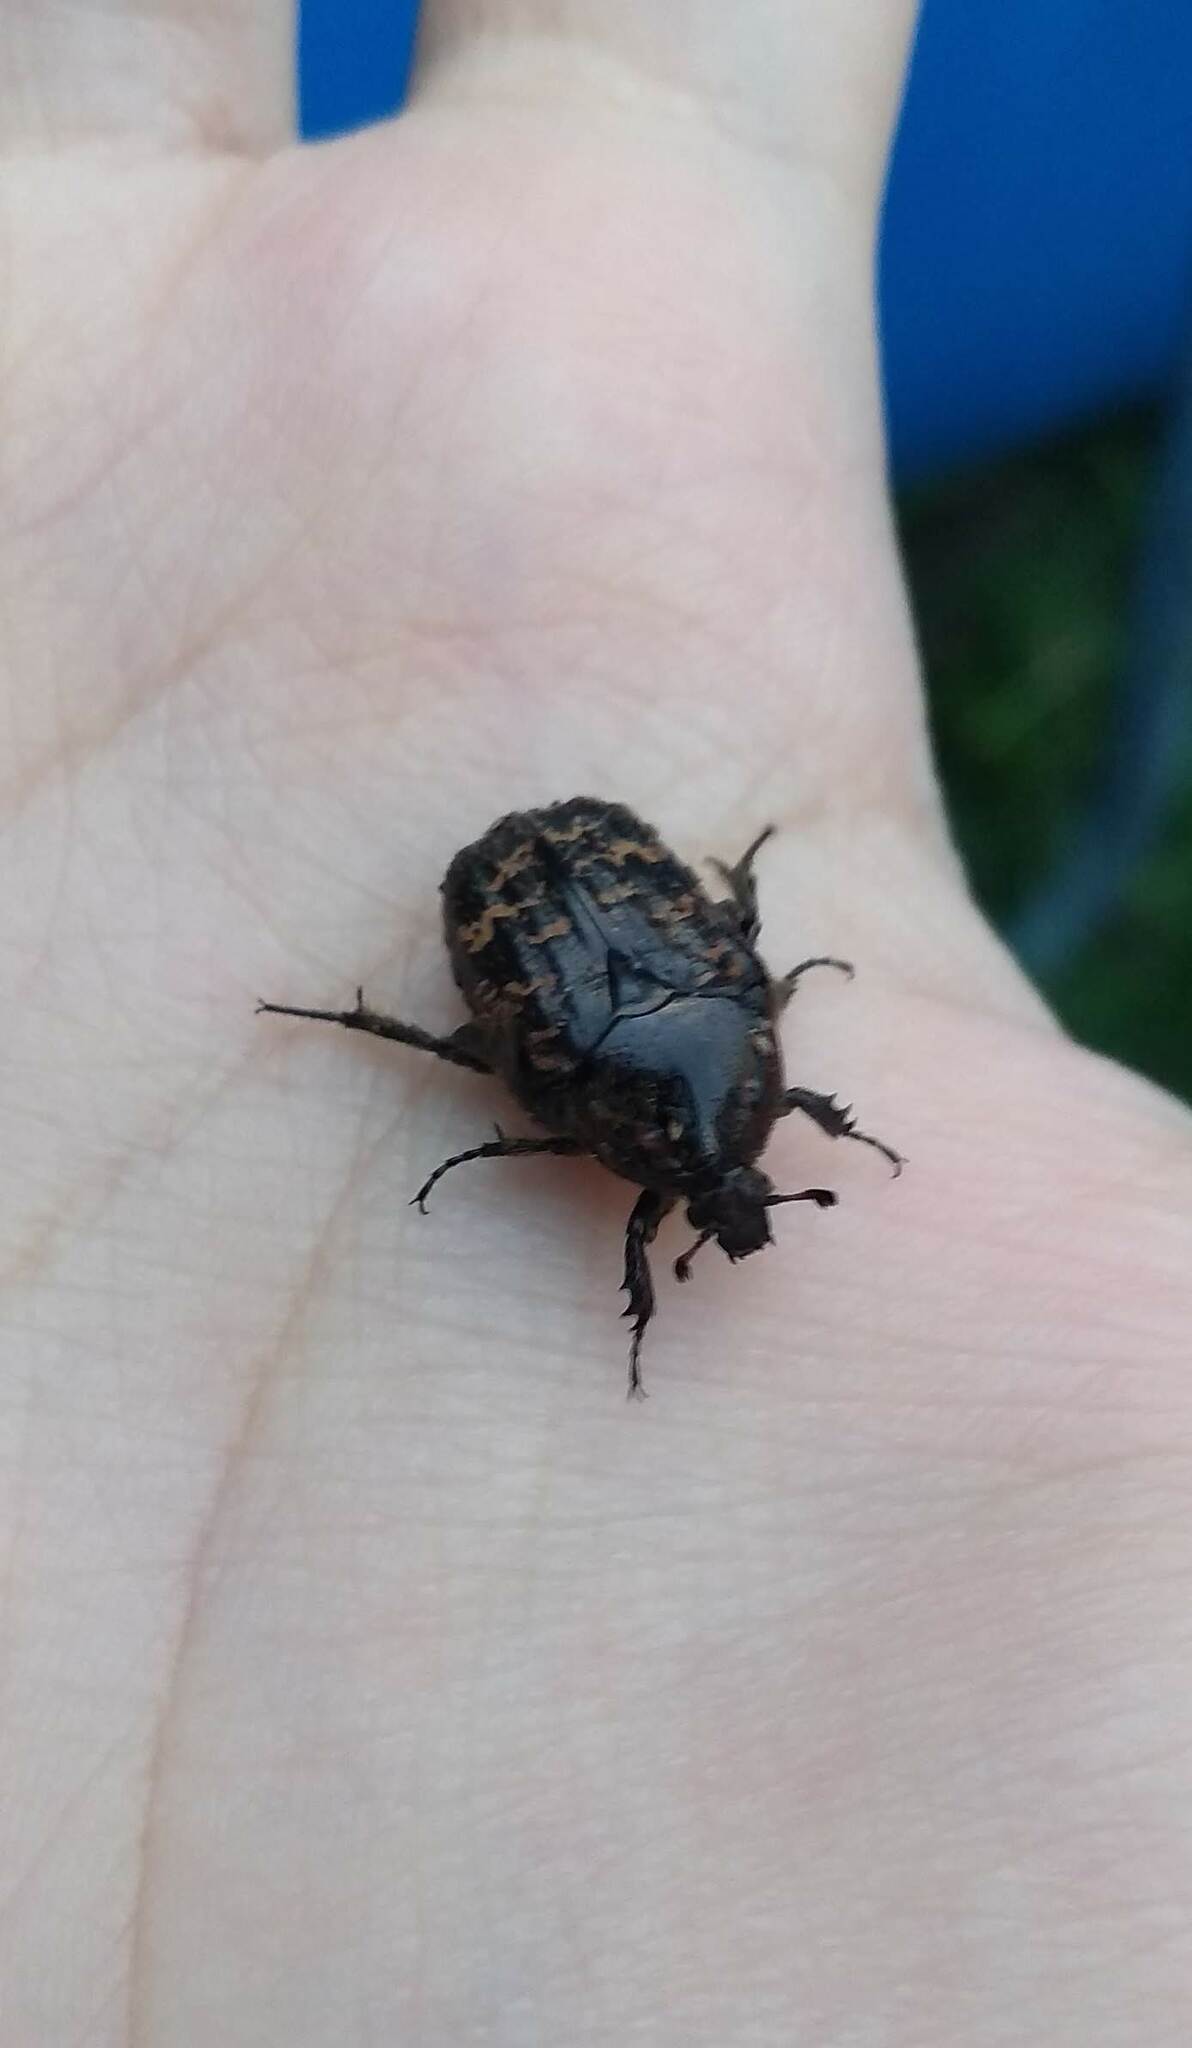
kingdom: Animalia
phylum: Arthropoda
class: Insecta
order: Coleoptera
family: Scarabaeidae
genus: Euphoria
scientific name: Euphoria lurida
